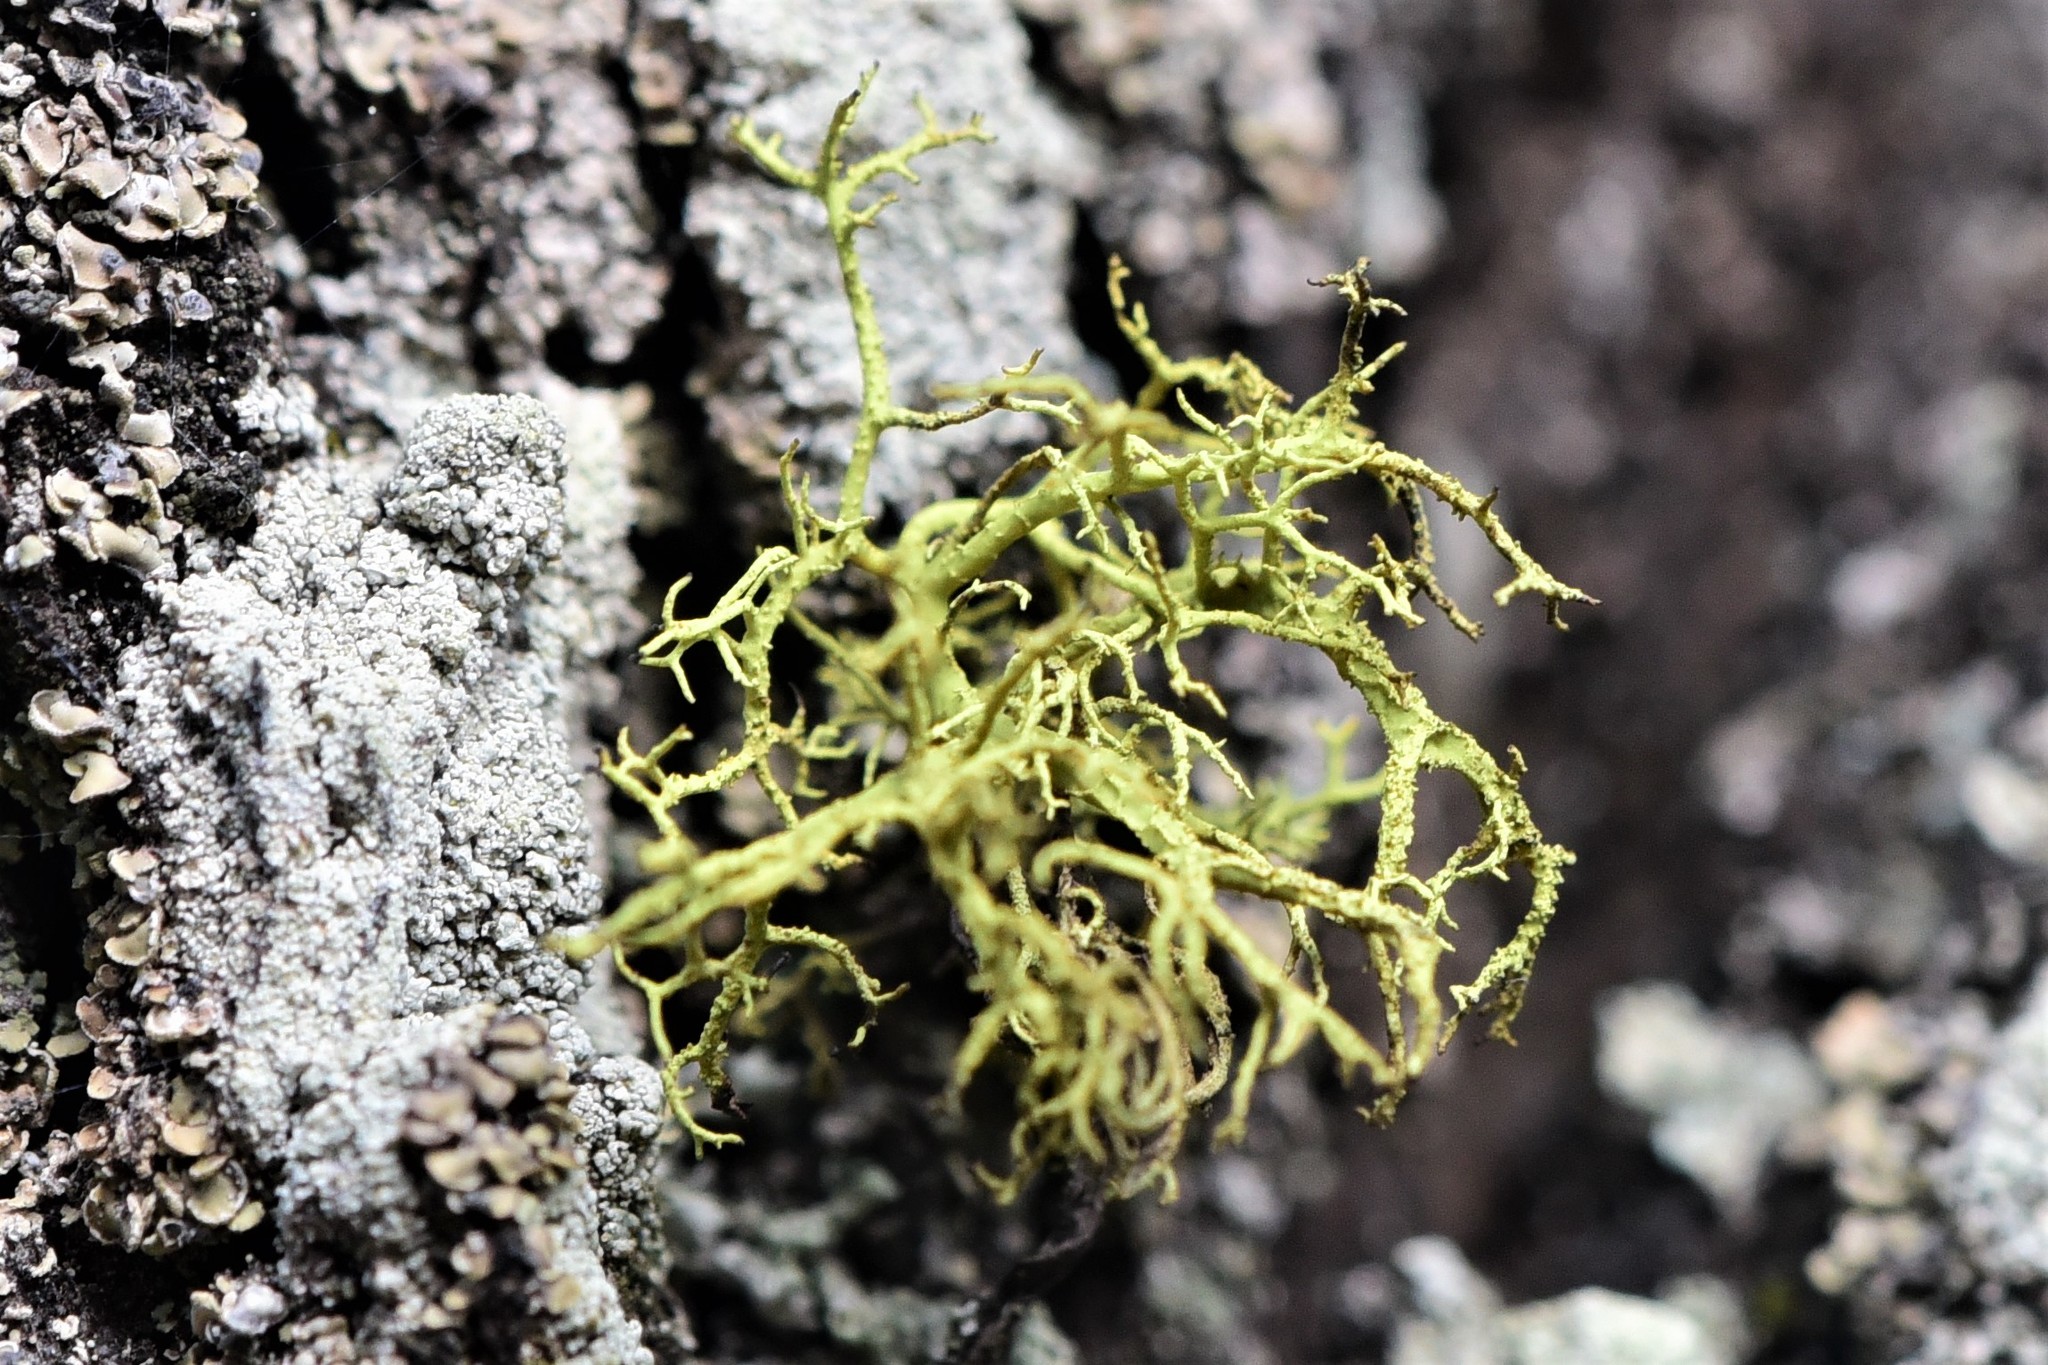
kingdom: Fungi
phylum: Ascomycota
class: Lecanoromycetes
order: Lecanorales
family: Parmeliaceae
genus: Letharia
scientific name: Letharia vulpina
